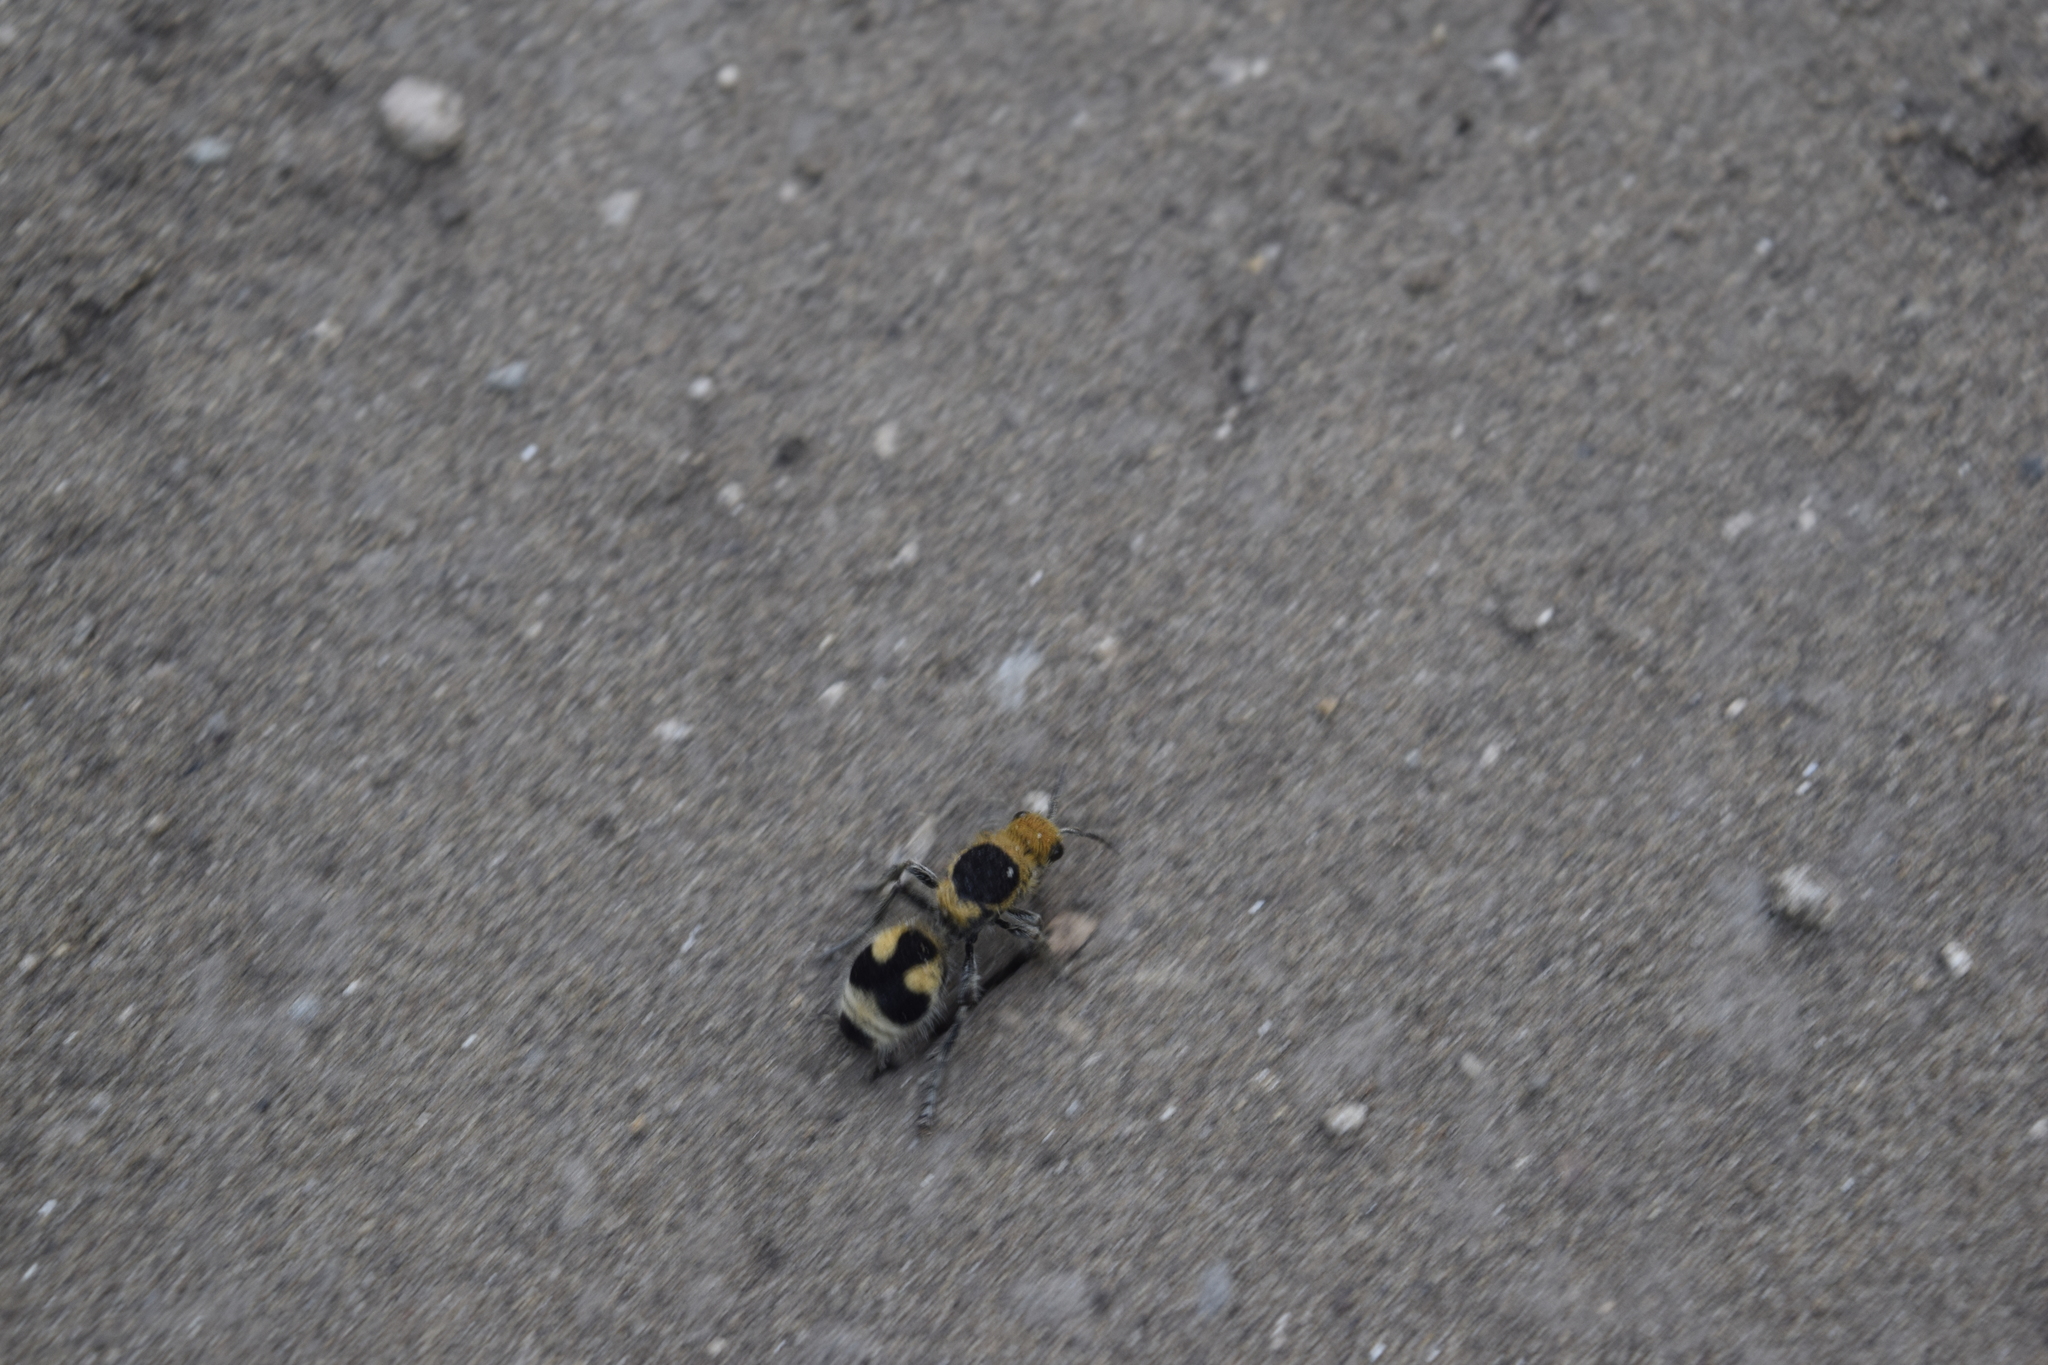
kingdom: Animalia
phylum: Arthropoda
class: Insecta
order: Hymenoptera
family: Mutillidae
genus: Dasymutilla
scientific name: Dasymutilla
